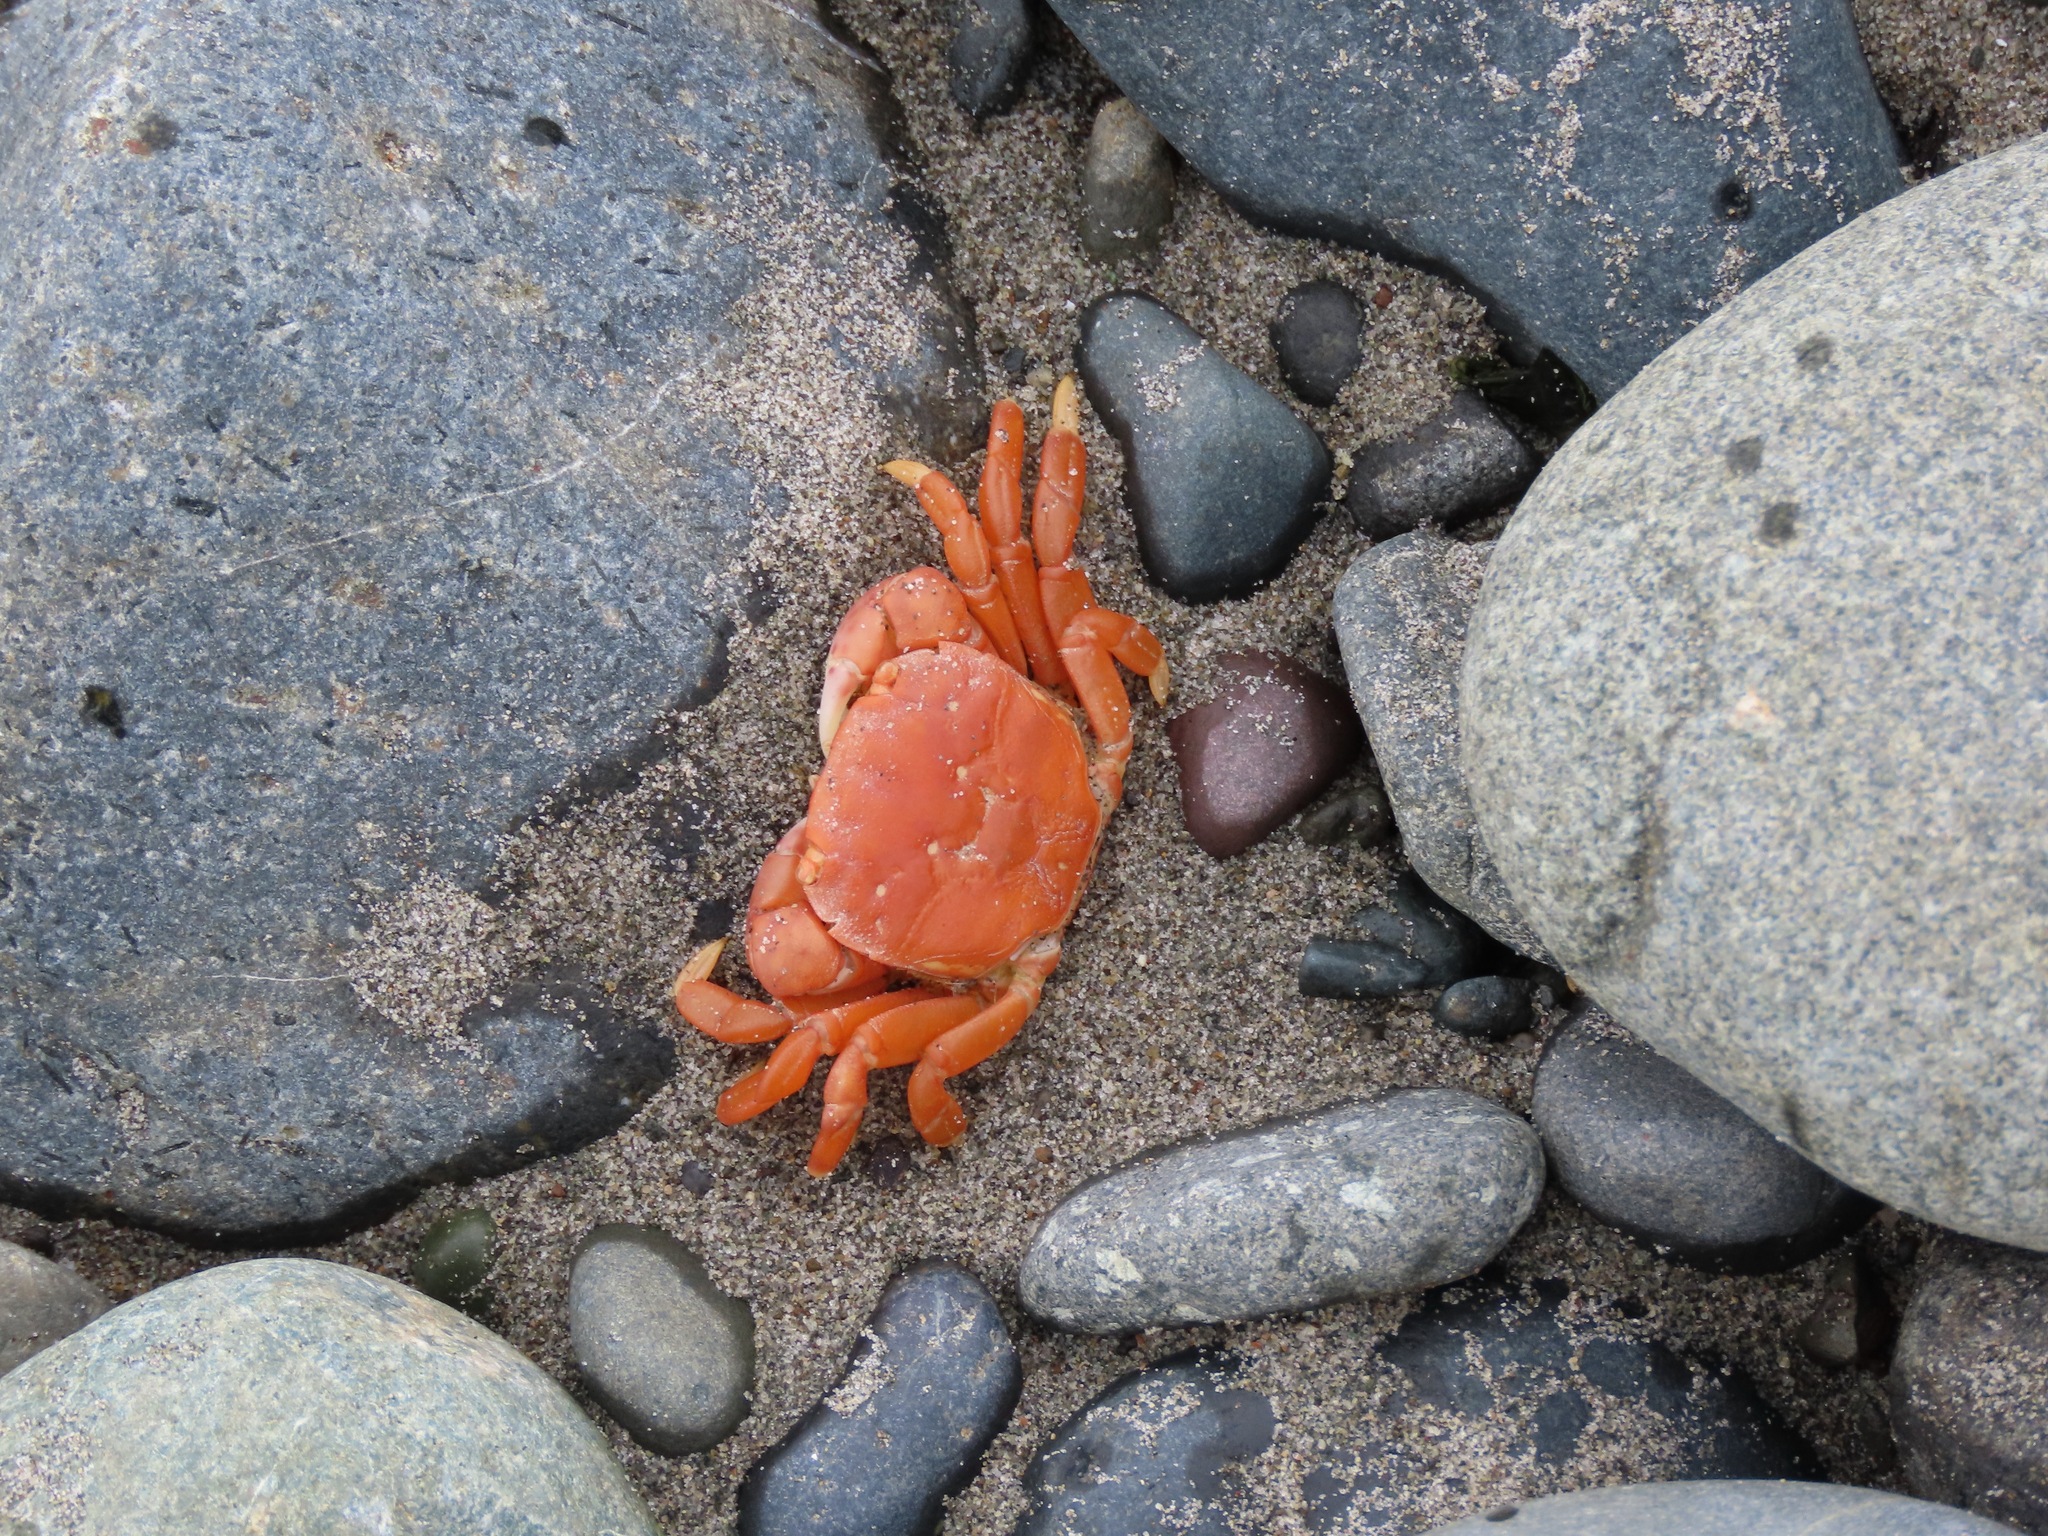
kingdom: Animalia
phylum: Arthropoda
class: Malacostraca
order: Decapoda
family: Varunidae
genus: Hemigrapsus
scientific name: Hemigrapsus nudus
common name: Purple shore crab
